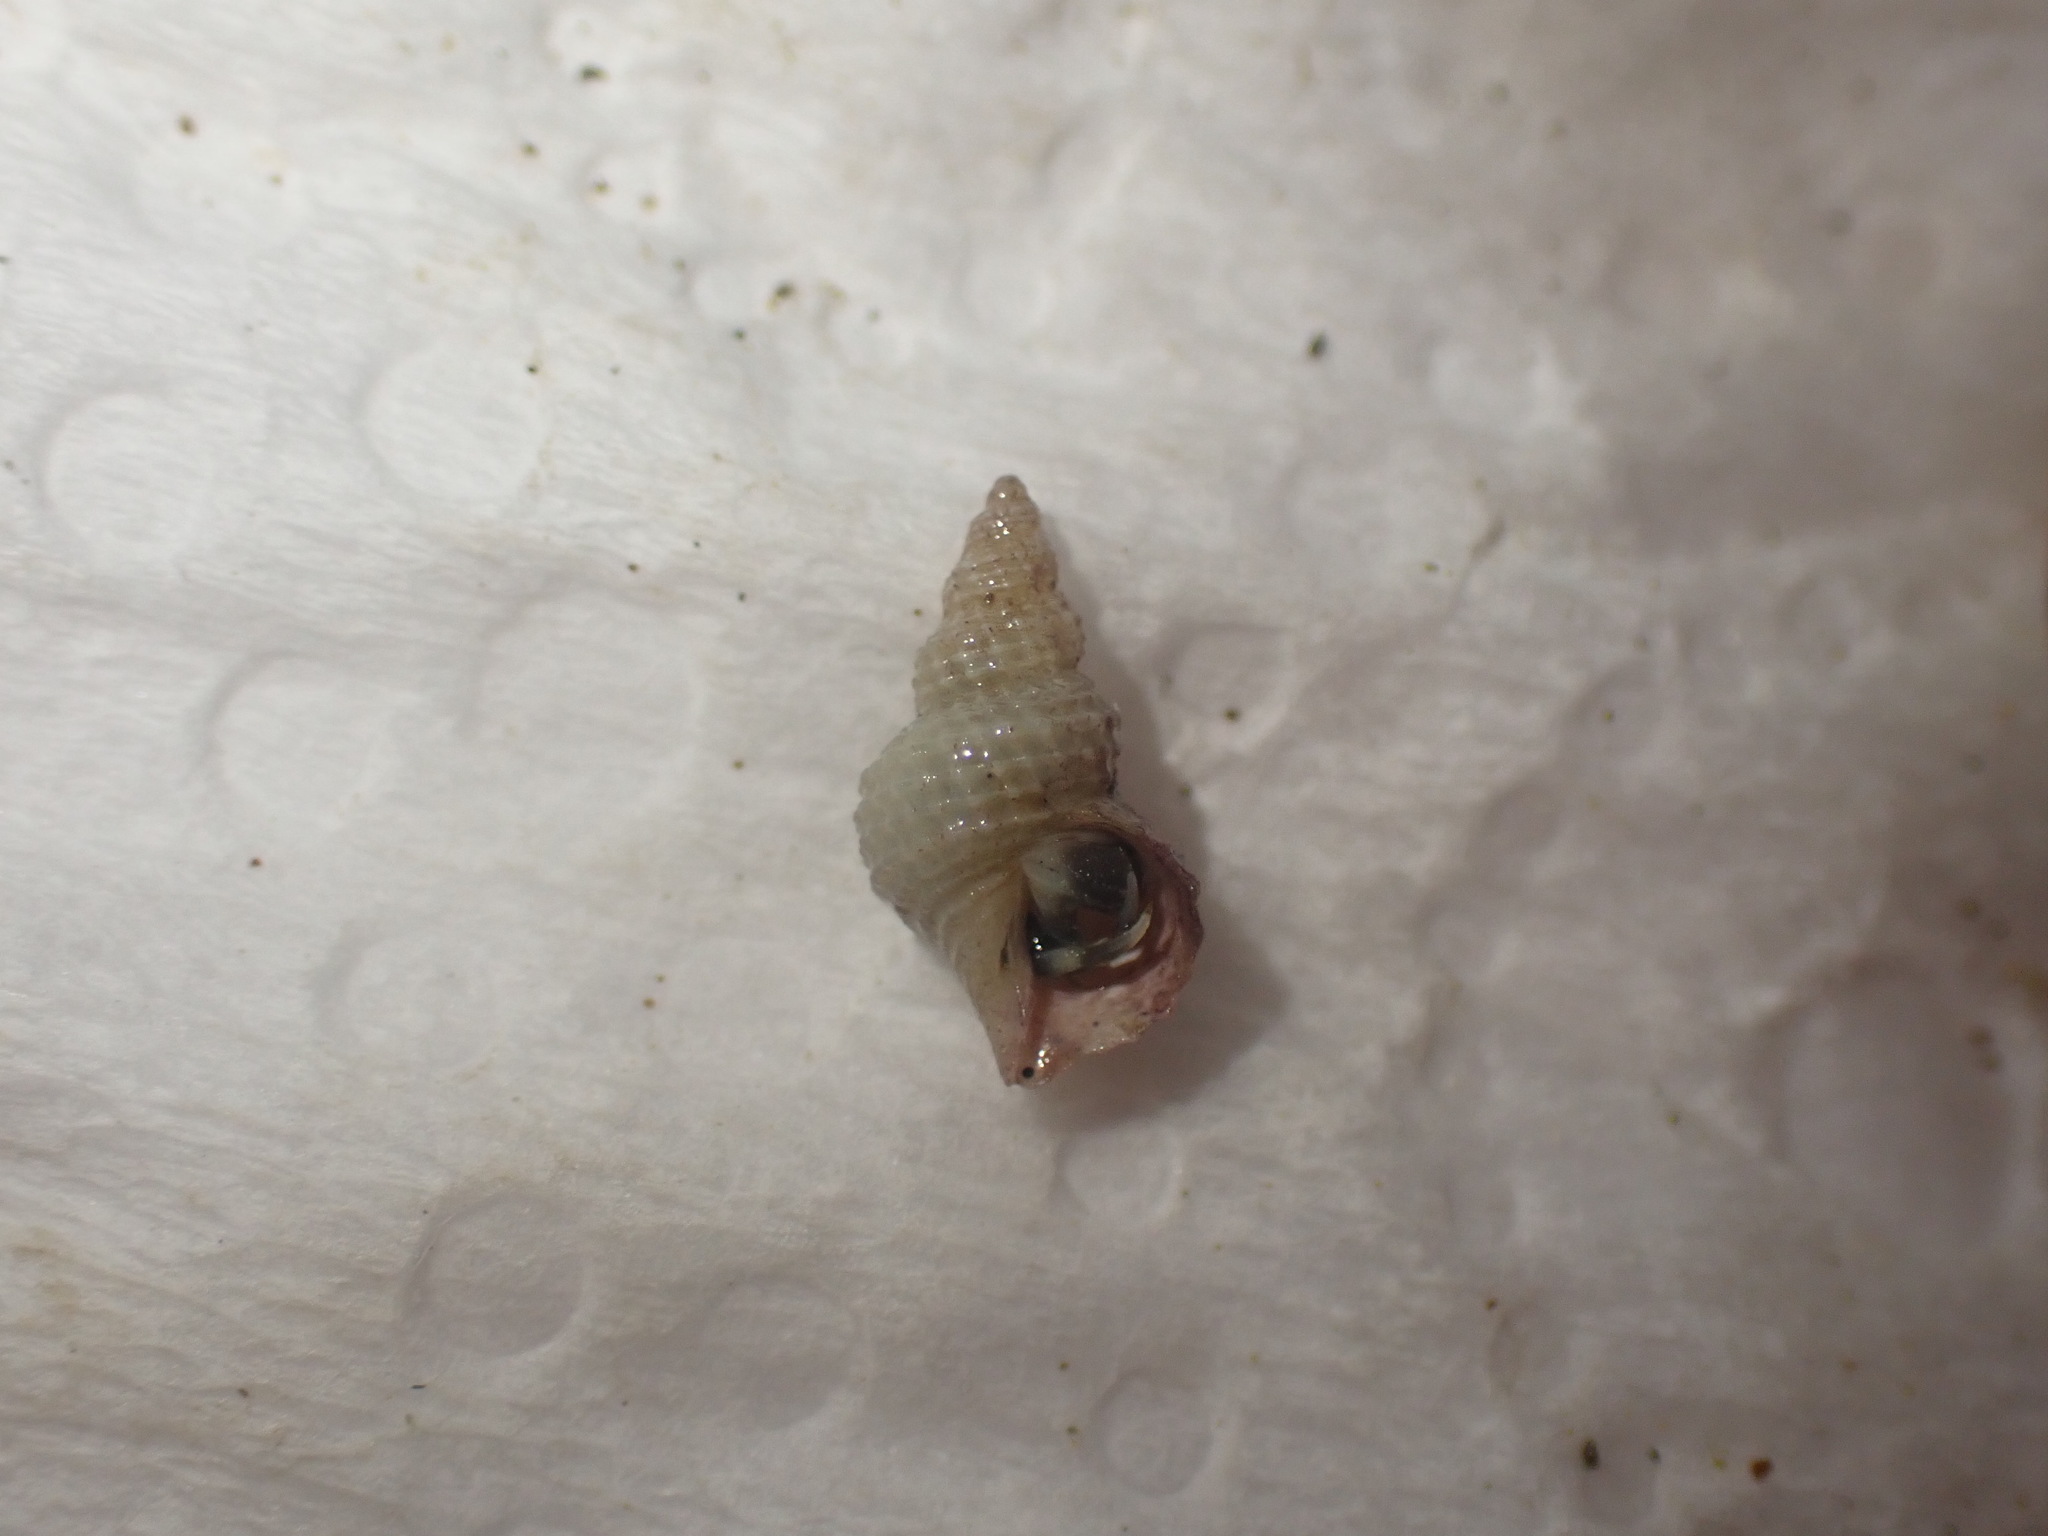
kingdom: Animalia
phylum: Mollusca
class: Gastropoda
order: Littorinimorpha
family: Capulidae
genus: Trichosirius
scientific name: Trichosirius inornatus
